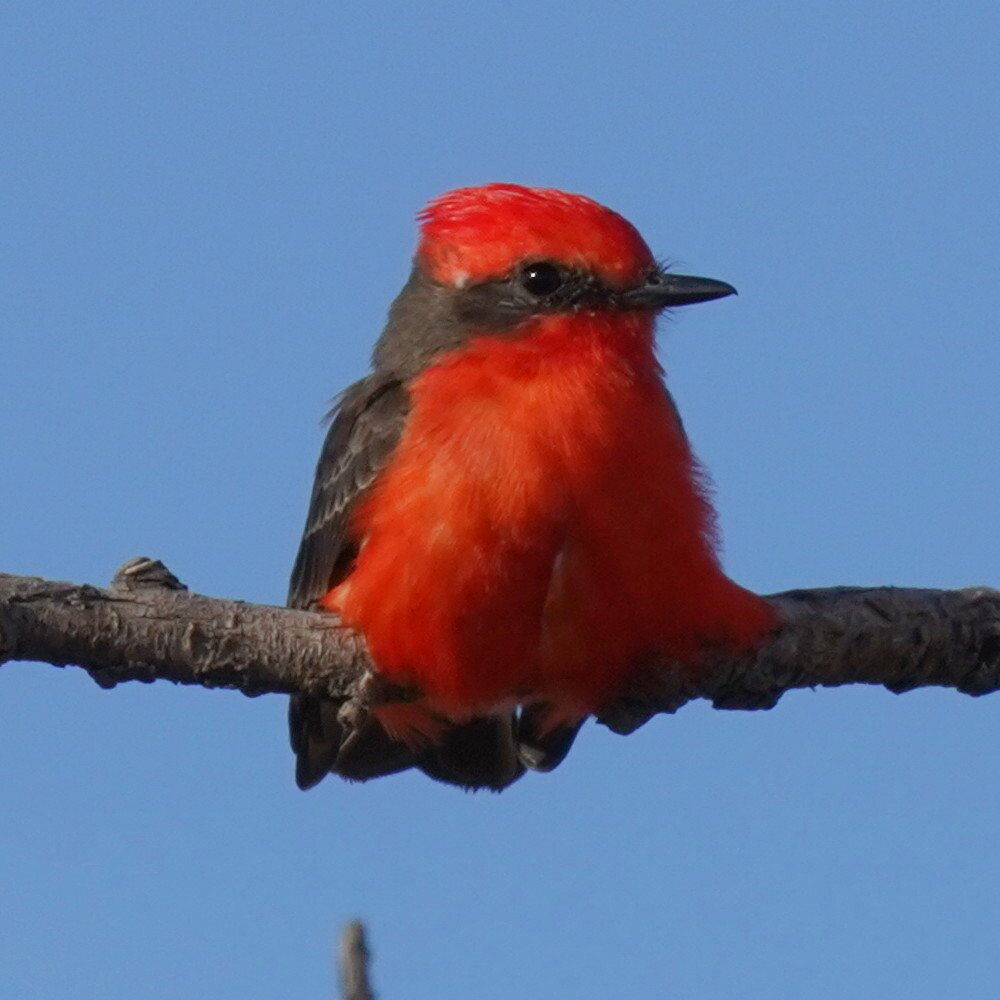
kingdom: Animalia
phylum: Chordata
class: Aves
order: Passeriformes
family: Tyrannidae
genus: Pyrocephalus
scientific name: Pyrocephalus rubinus
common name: Vermilion flycatcher
